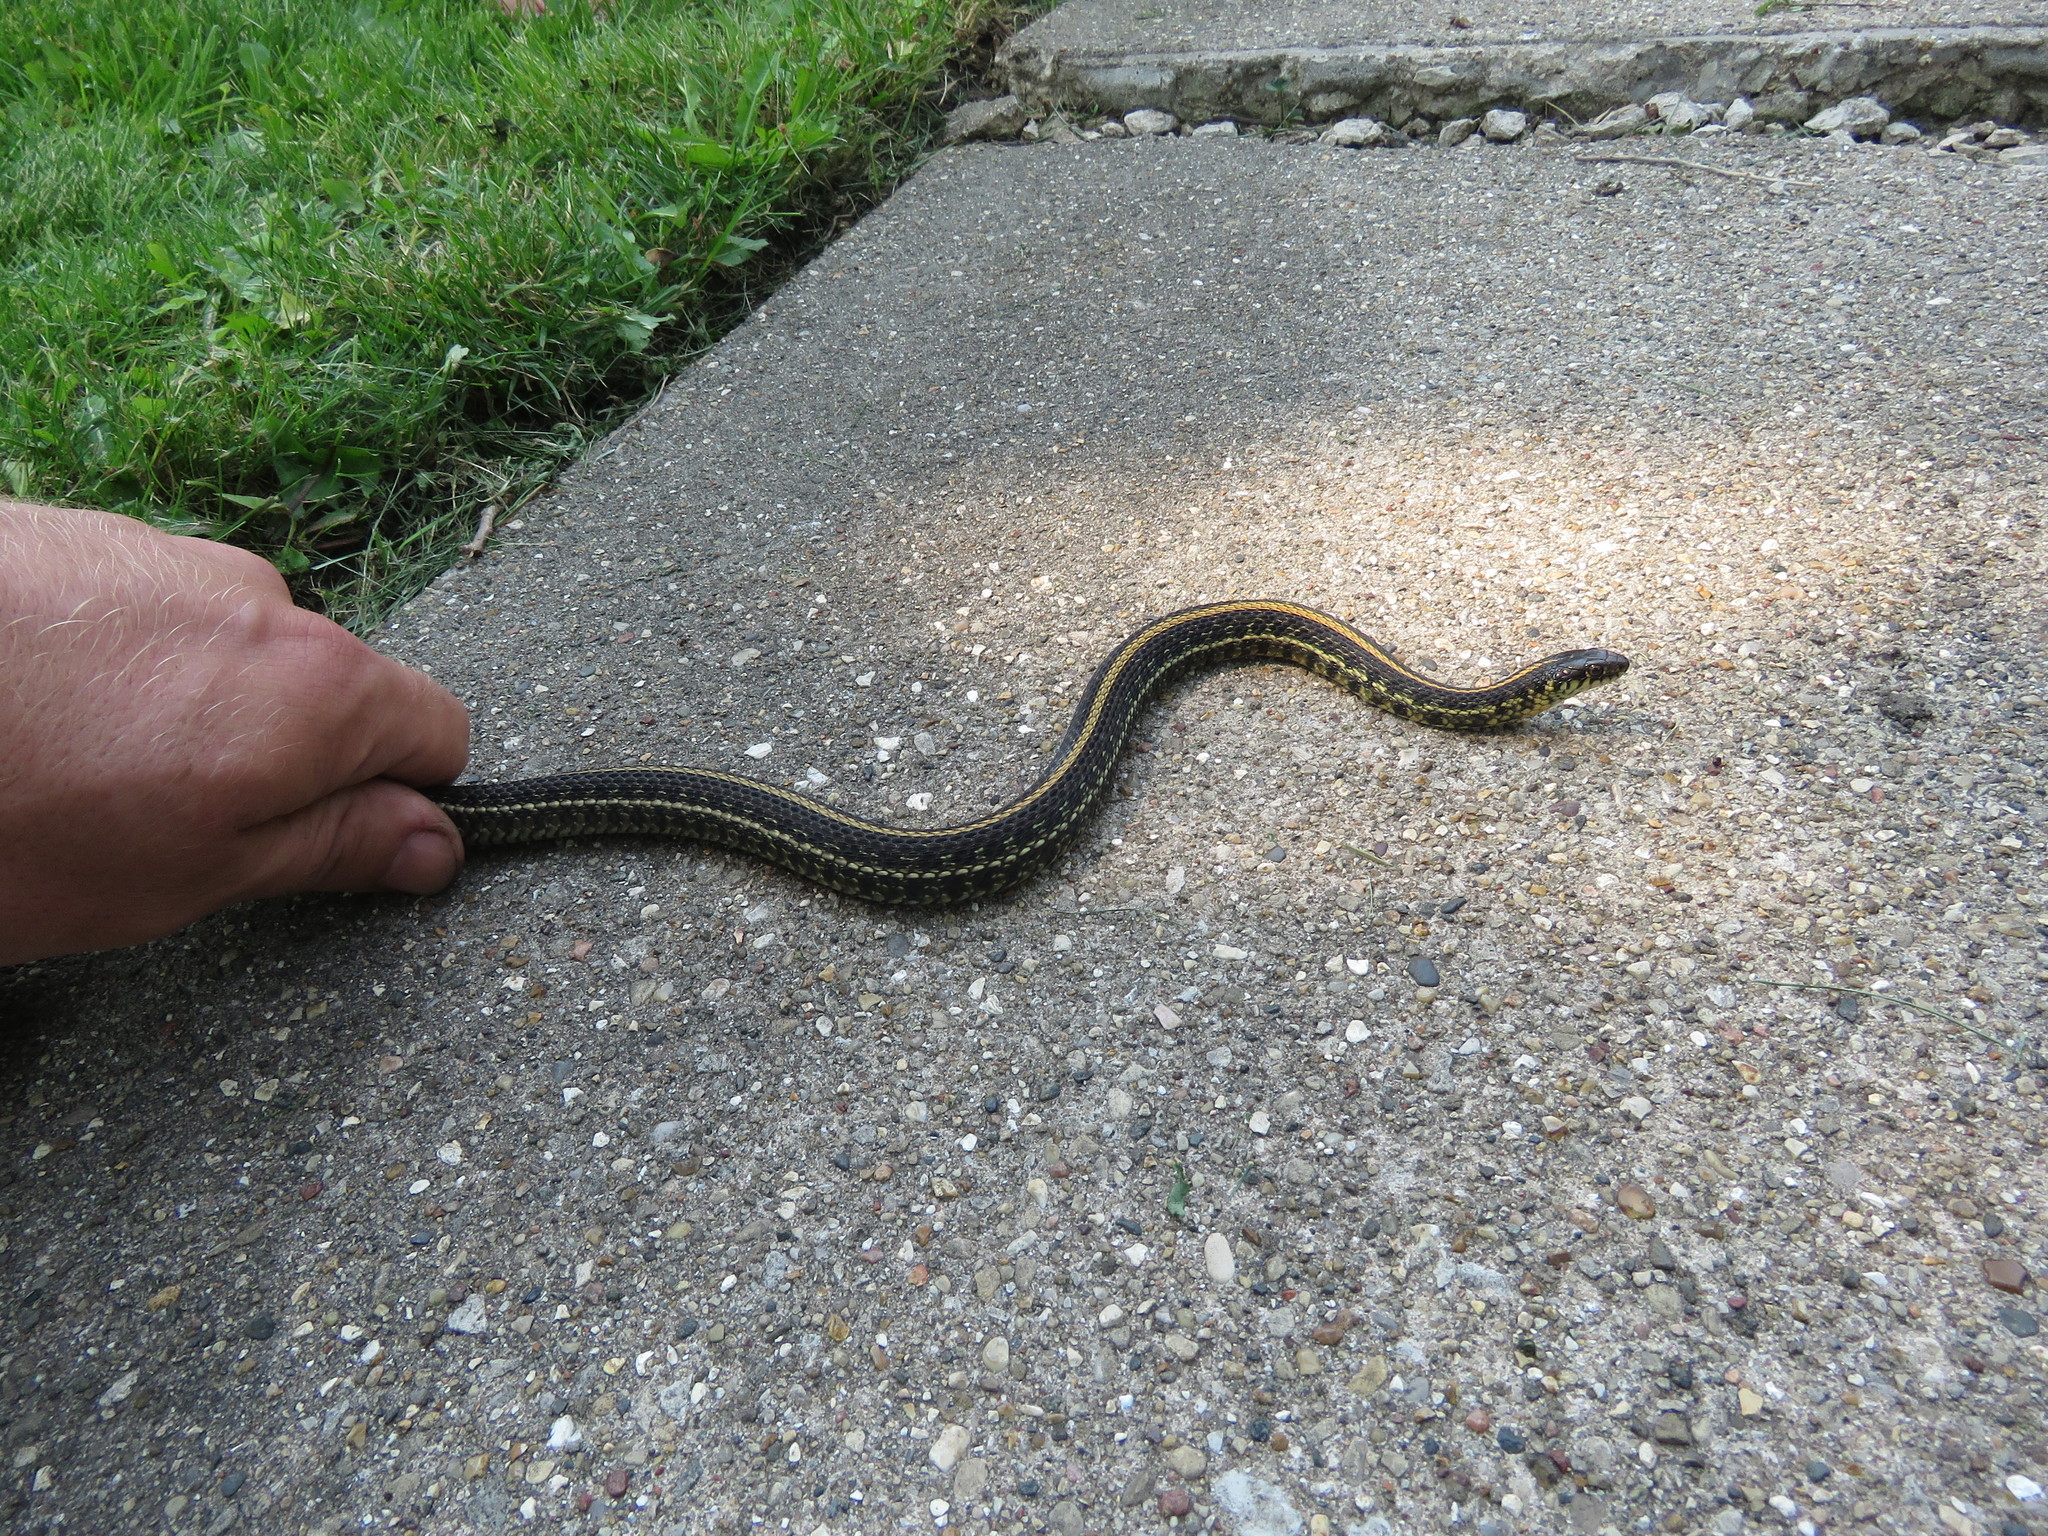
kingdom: Animalia
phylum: Chordata
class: Squamata
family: Colubridae
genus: Thamnophis
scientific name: Thamnophis radix
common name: Plains garter snake
